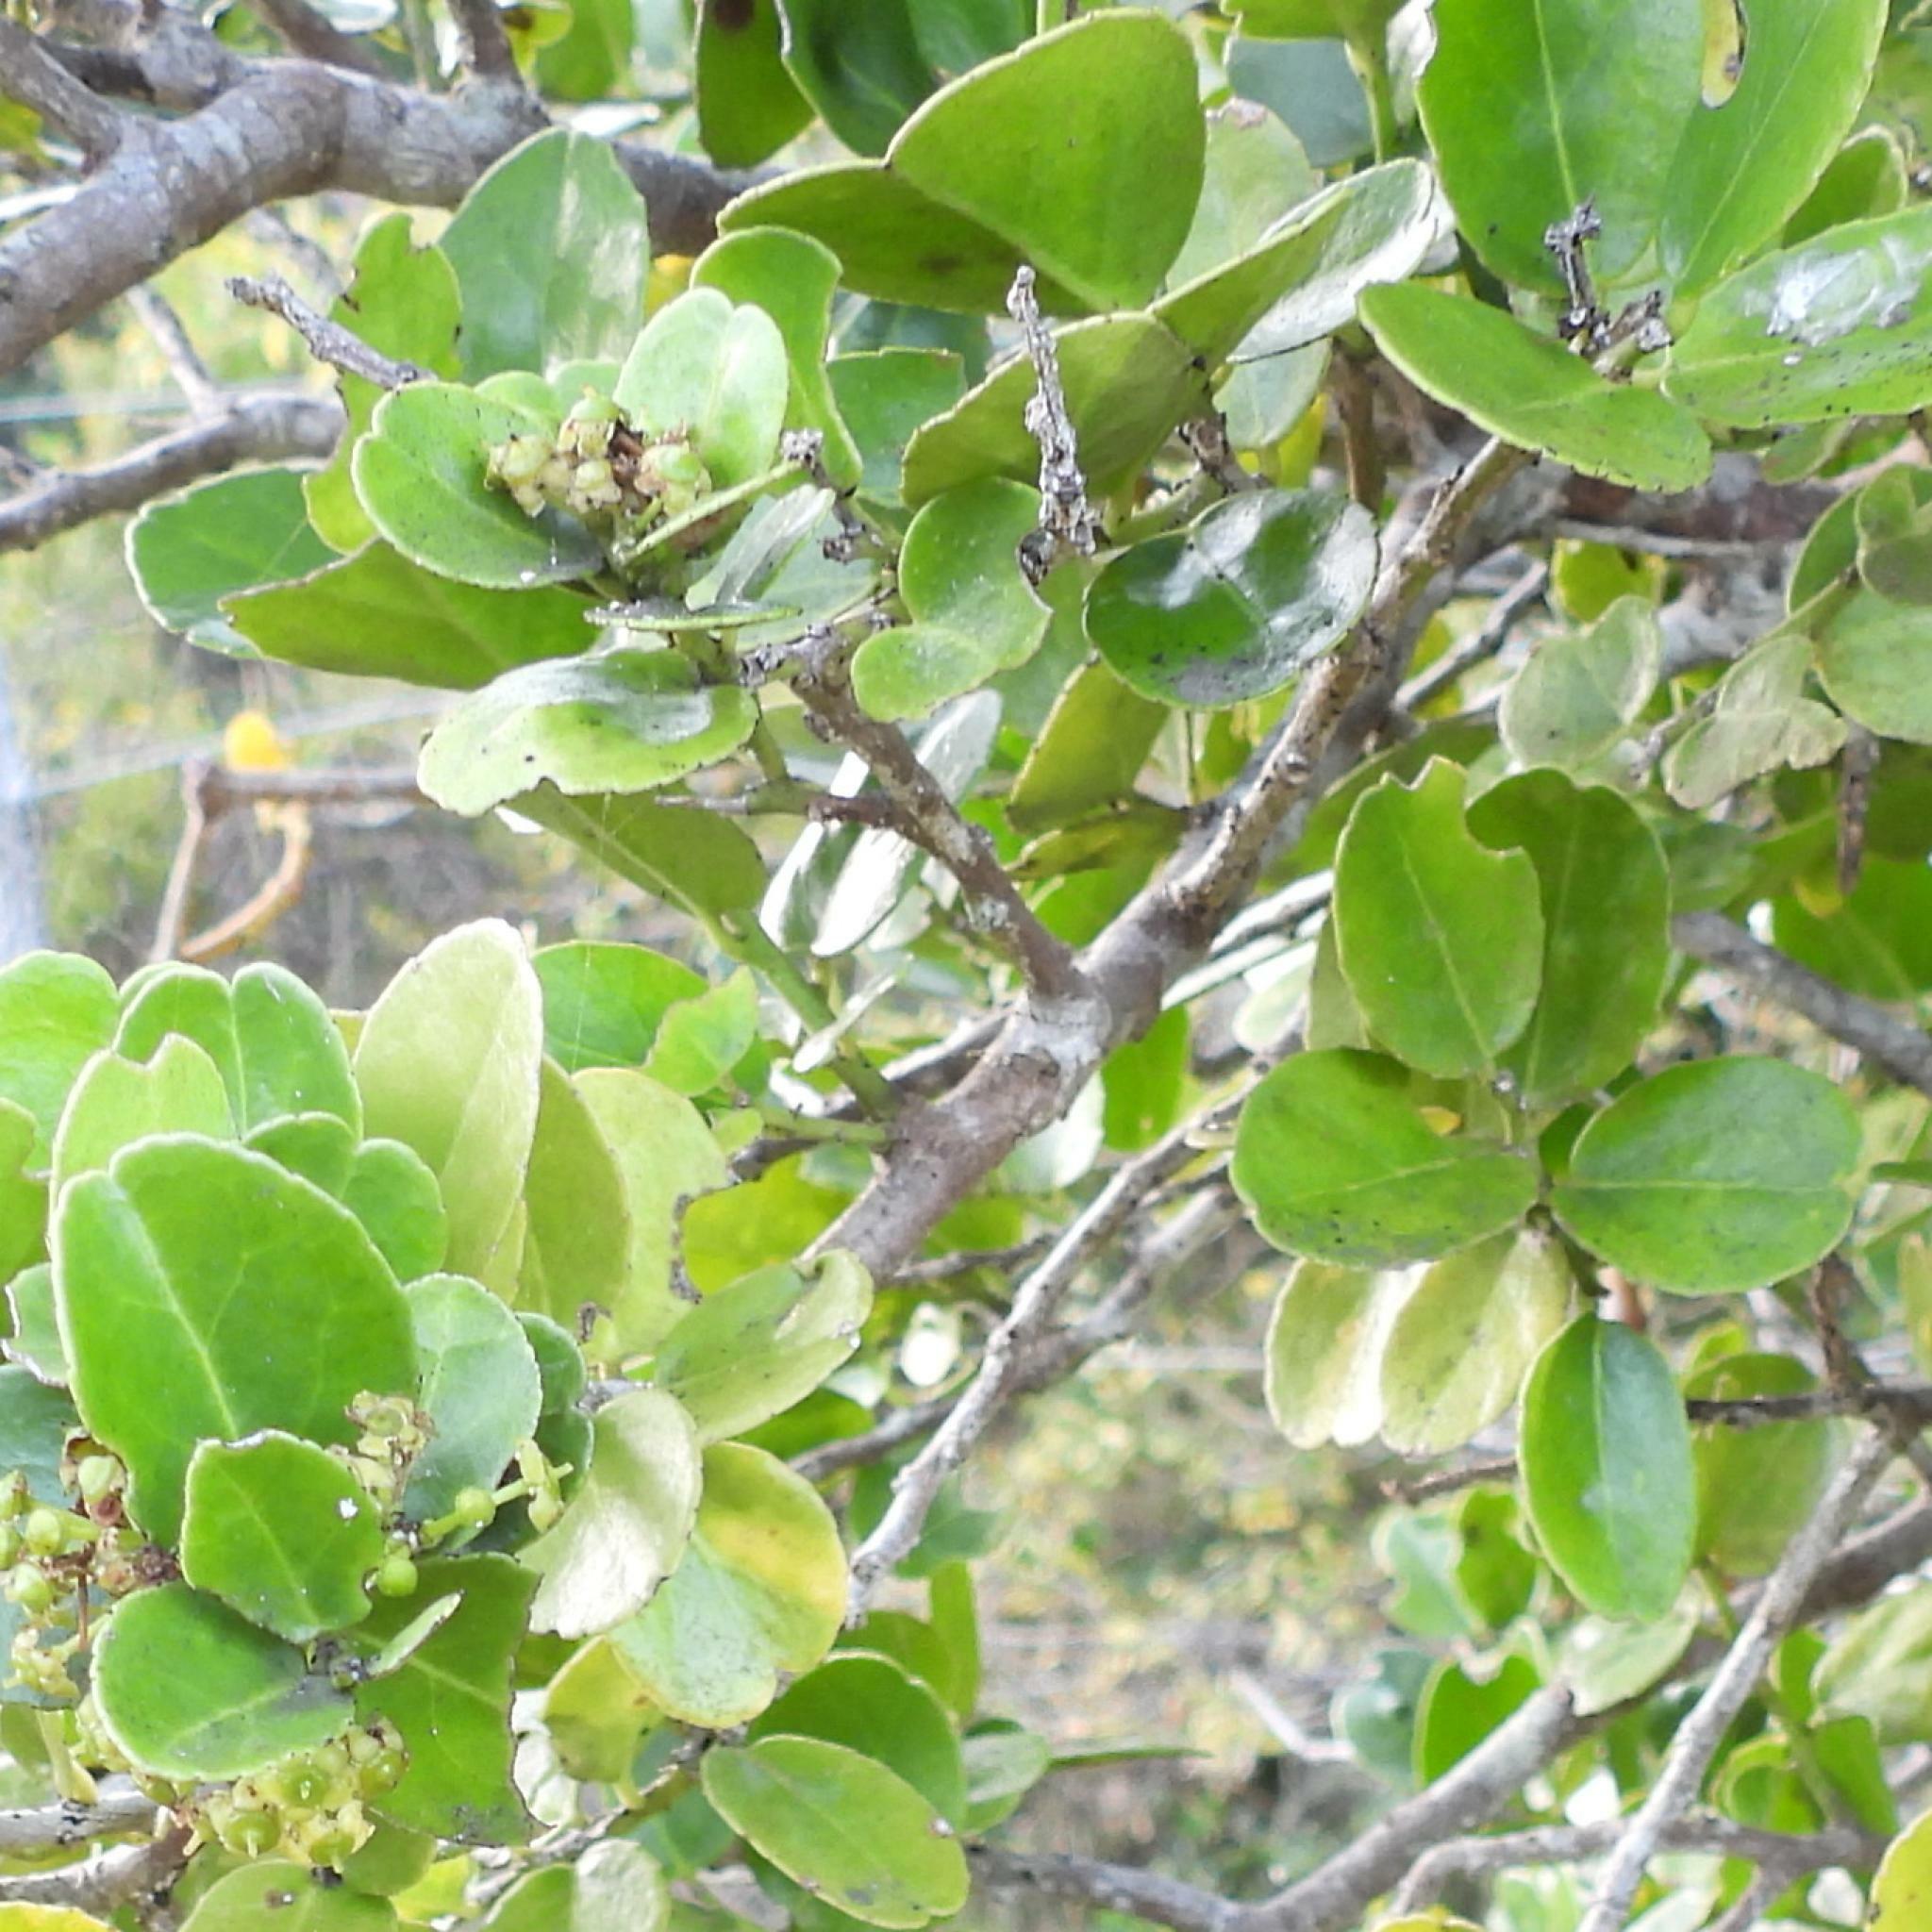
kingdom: Plantae
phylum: Tracheophyta
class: Magnoliopsida
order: Celastrales
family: Celastraceae
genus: Mystroxylon
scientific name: Mystroxylon aethiopicum
